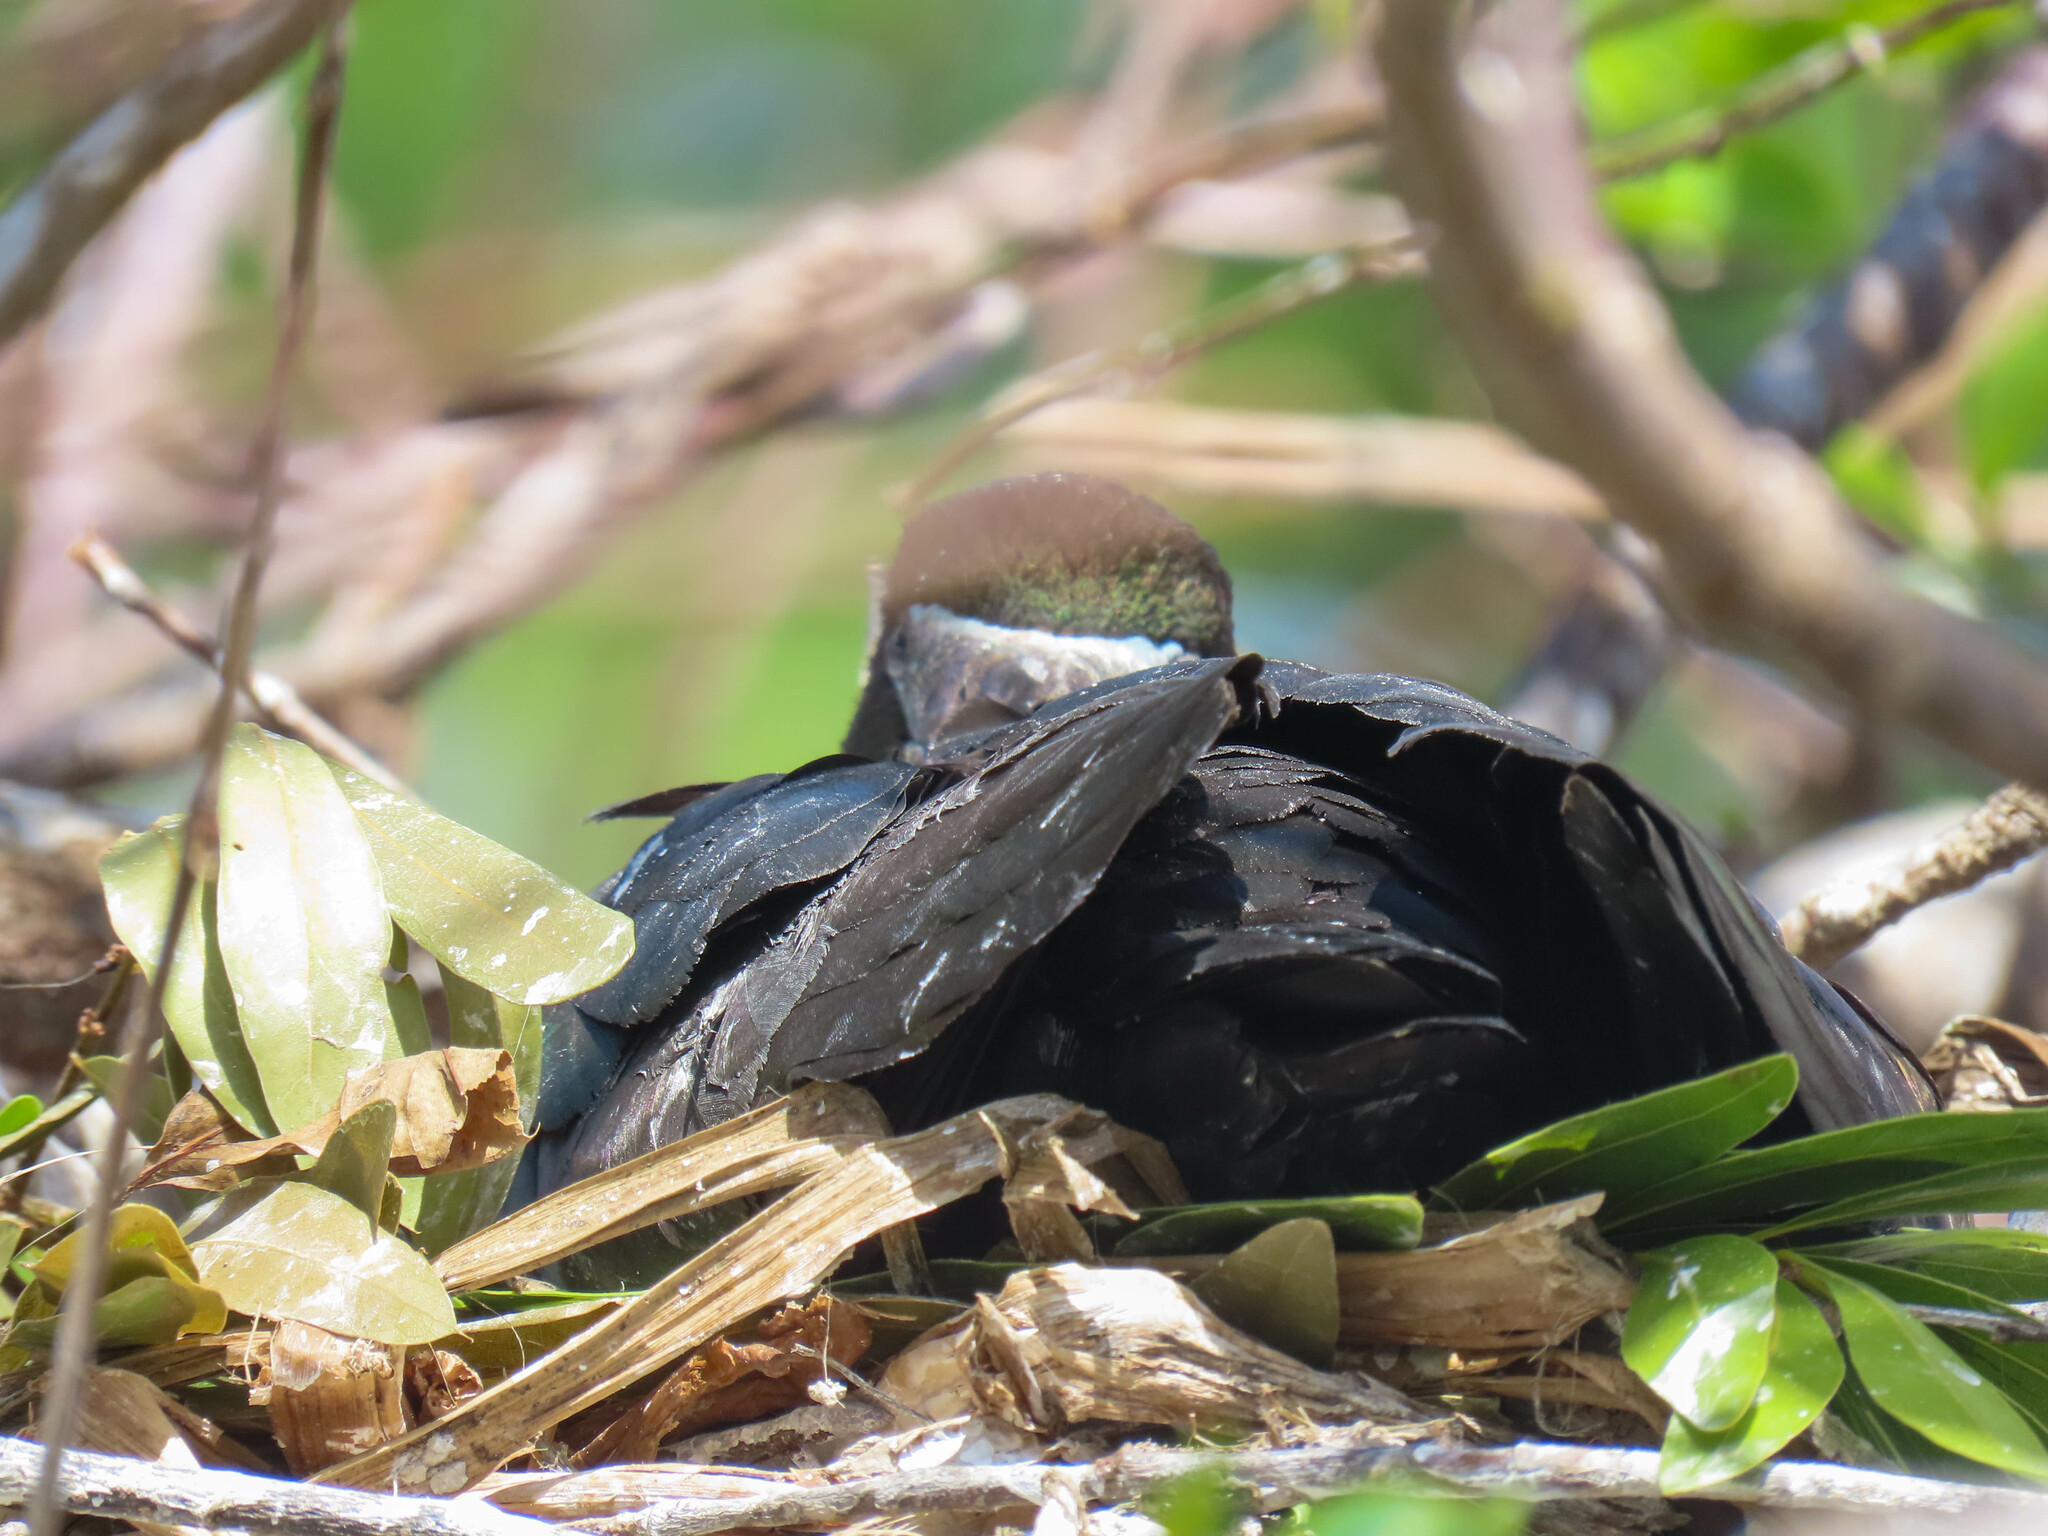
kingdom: Animalia
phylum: Chordata
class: Aves
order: Pelecaniformes
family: Threskiornithidae
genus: Plegadis
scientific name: Plegadis falcinellus
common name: Glossy ibis
